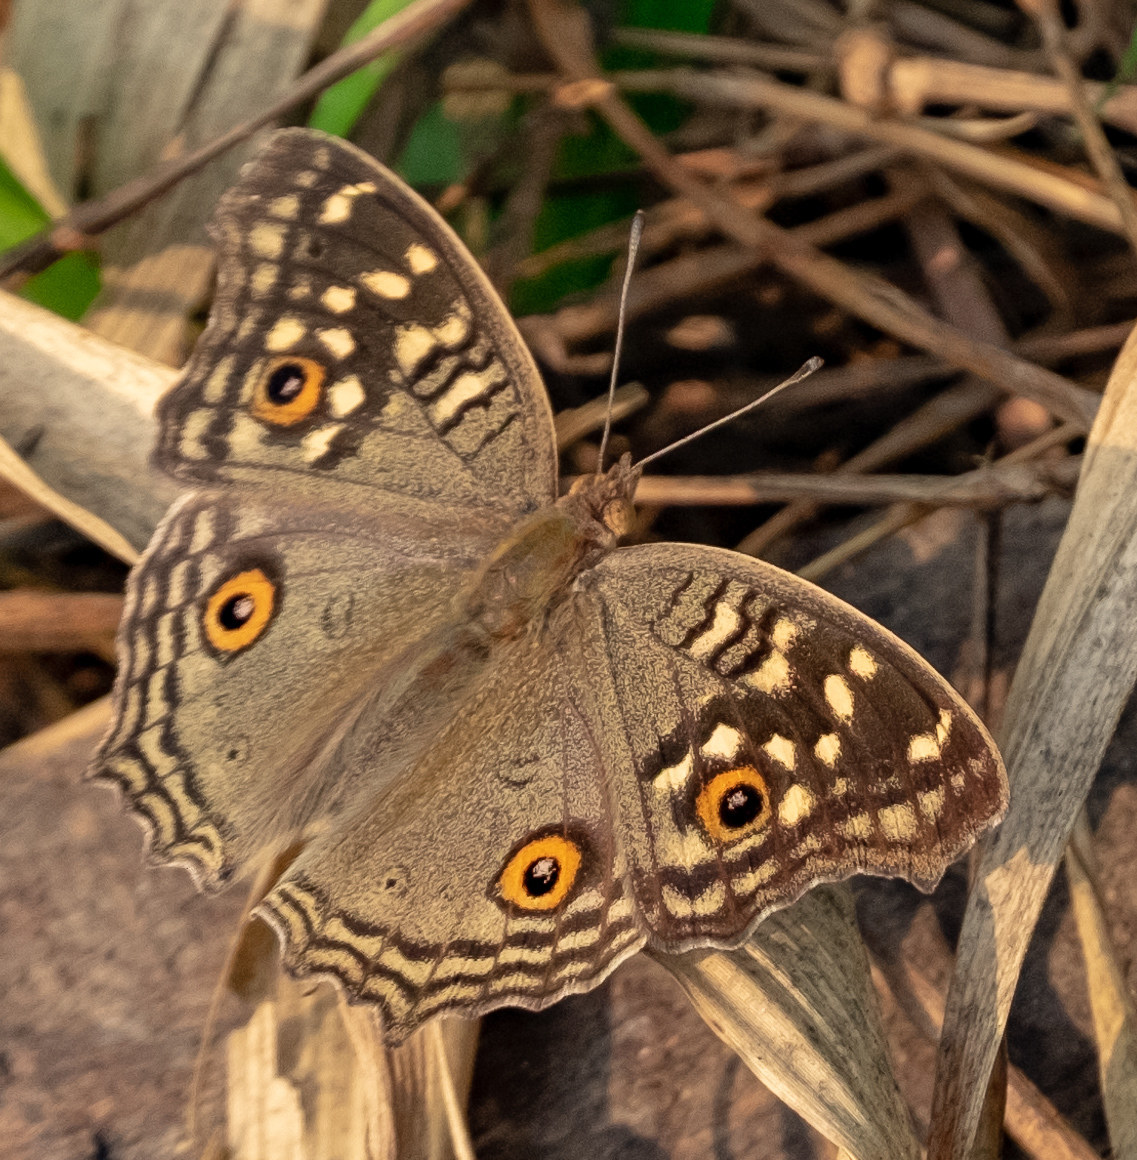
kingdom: Animalia
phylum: Arthropoda
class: Insecta
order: Lepidoptera
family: Nymphalidae
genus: Junonia
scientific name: Junonia lemonias
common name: Lemon pansy
